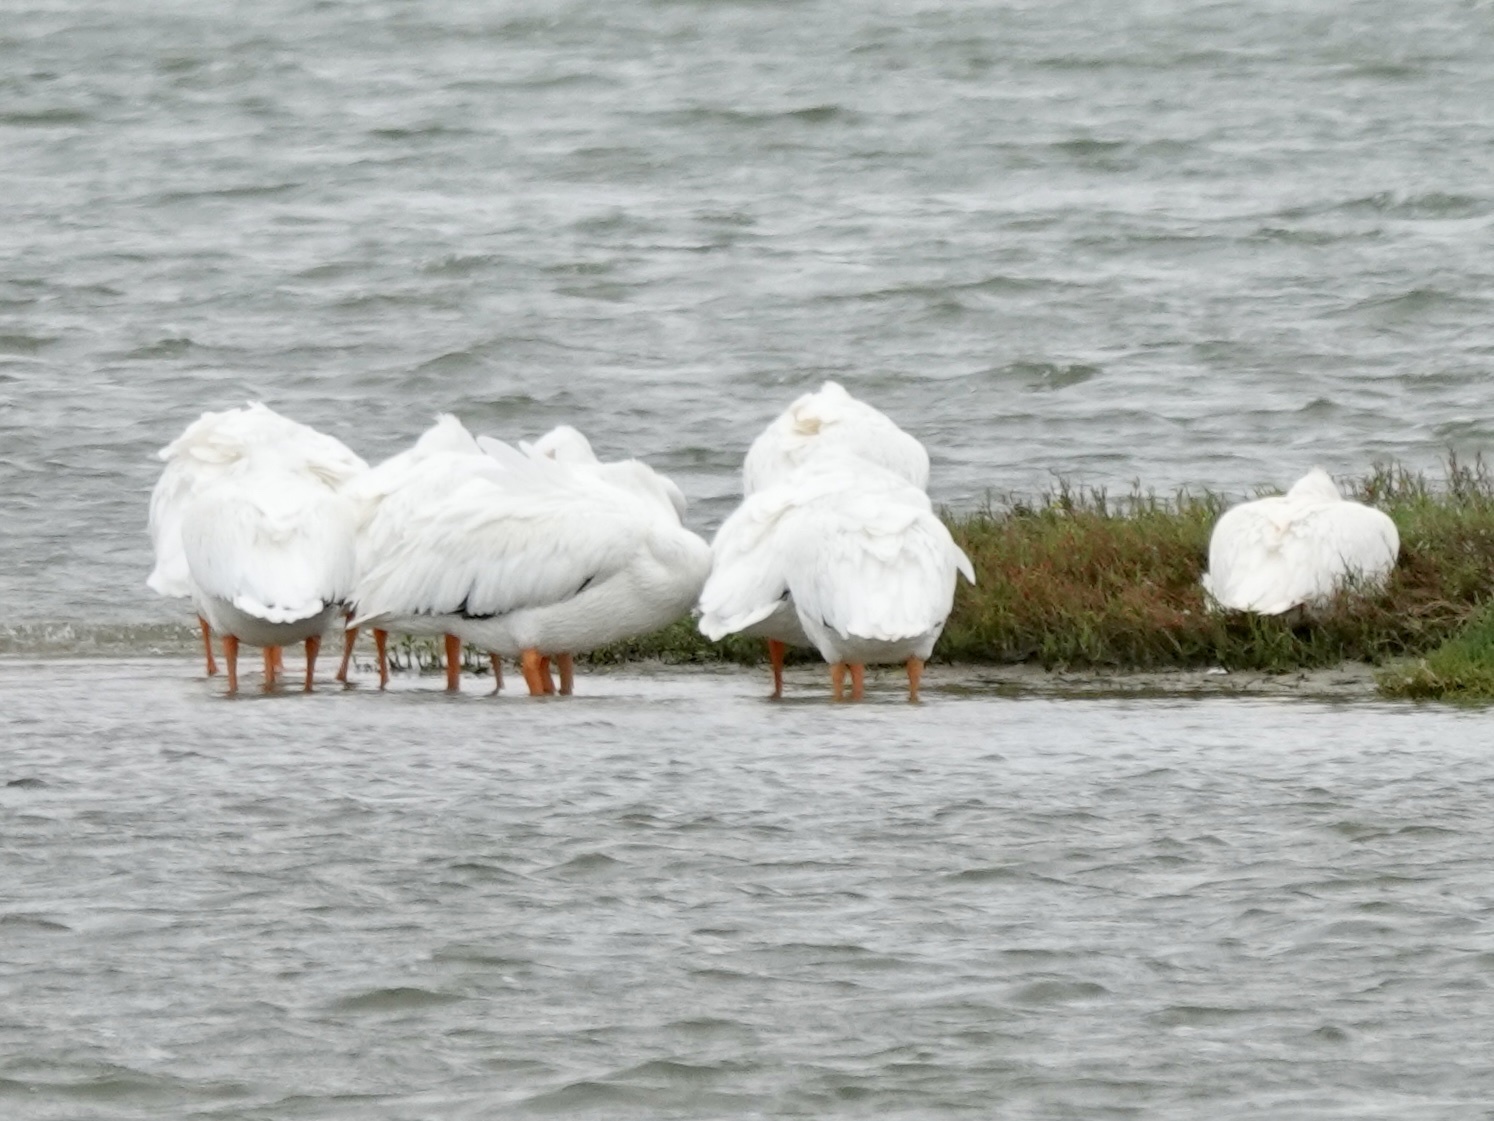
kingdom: Animalia
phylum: Chordata
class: Aves
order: Pelecaniformes
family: Pelecanidae
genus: Pelecanus
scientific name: Pelecanus erythrorhynchos
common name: American white pelican
